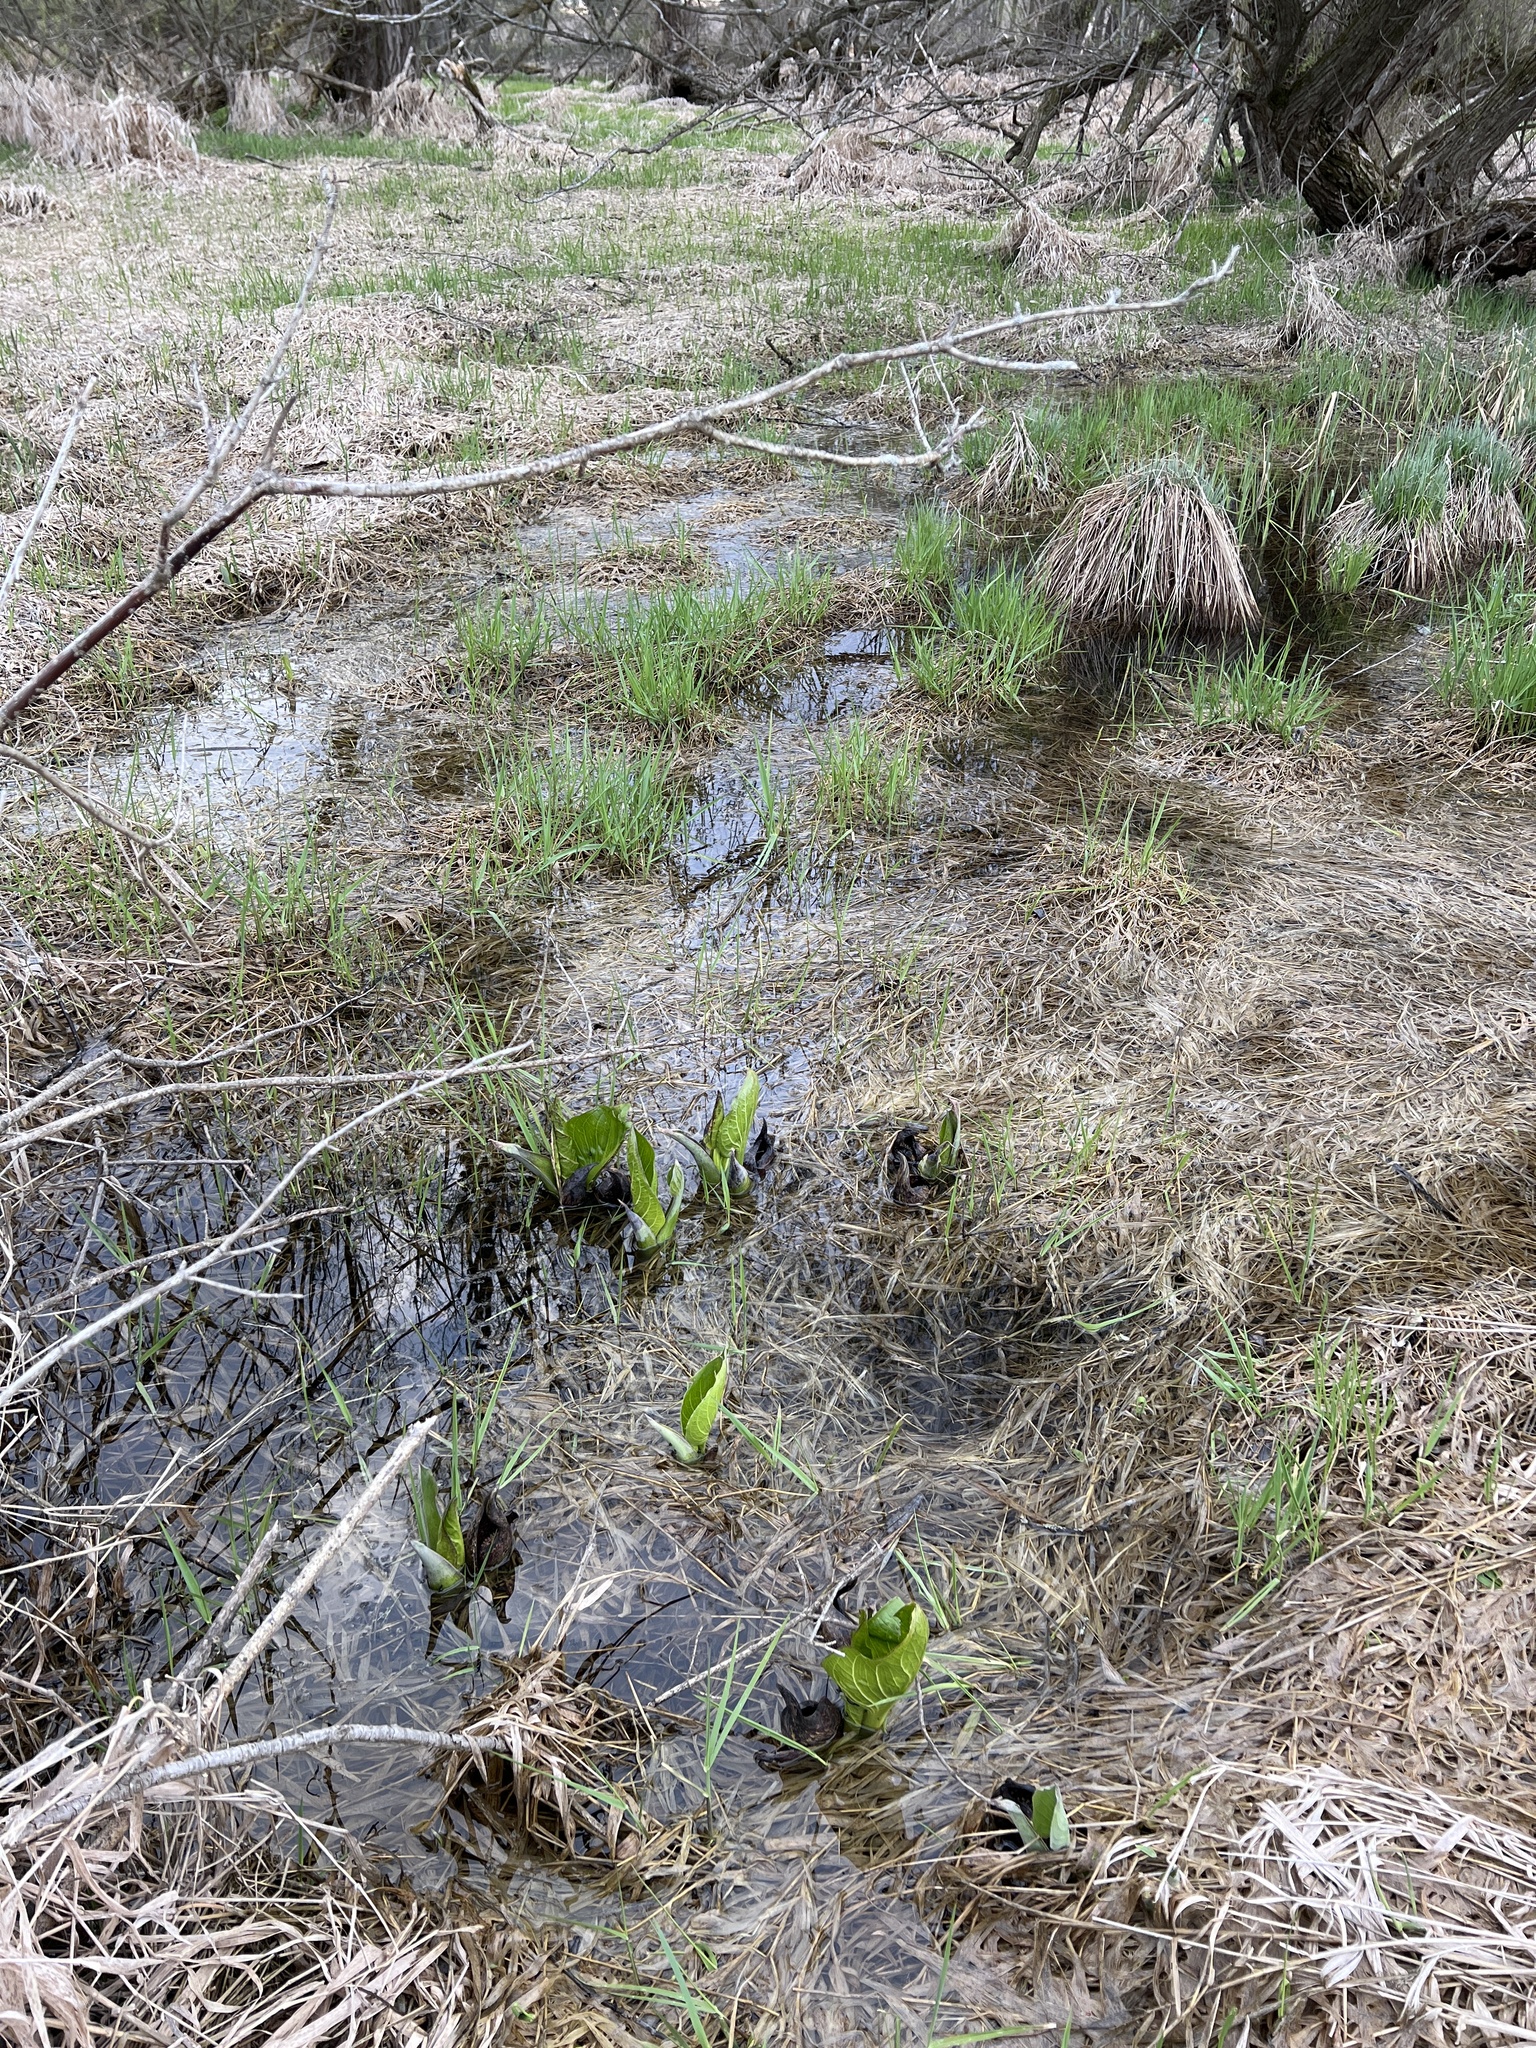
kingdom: Plantae
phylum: Tracheophyta
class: Liliopsida
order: Alismatales
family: Araceae
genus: Symplocarpus
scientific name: Symplocarpus foetidus
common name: Eastern skunk cabbage
